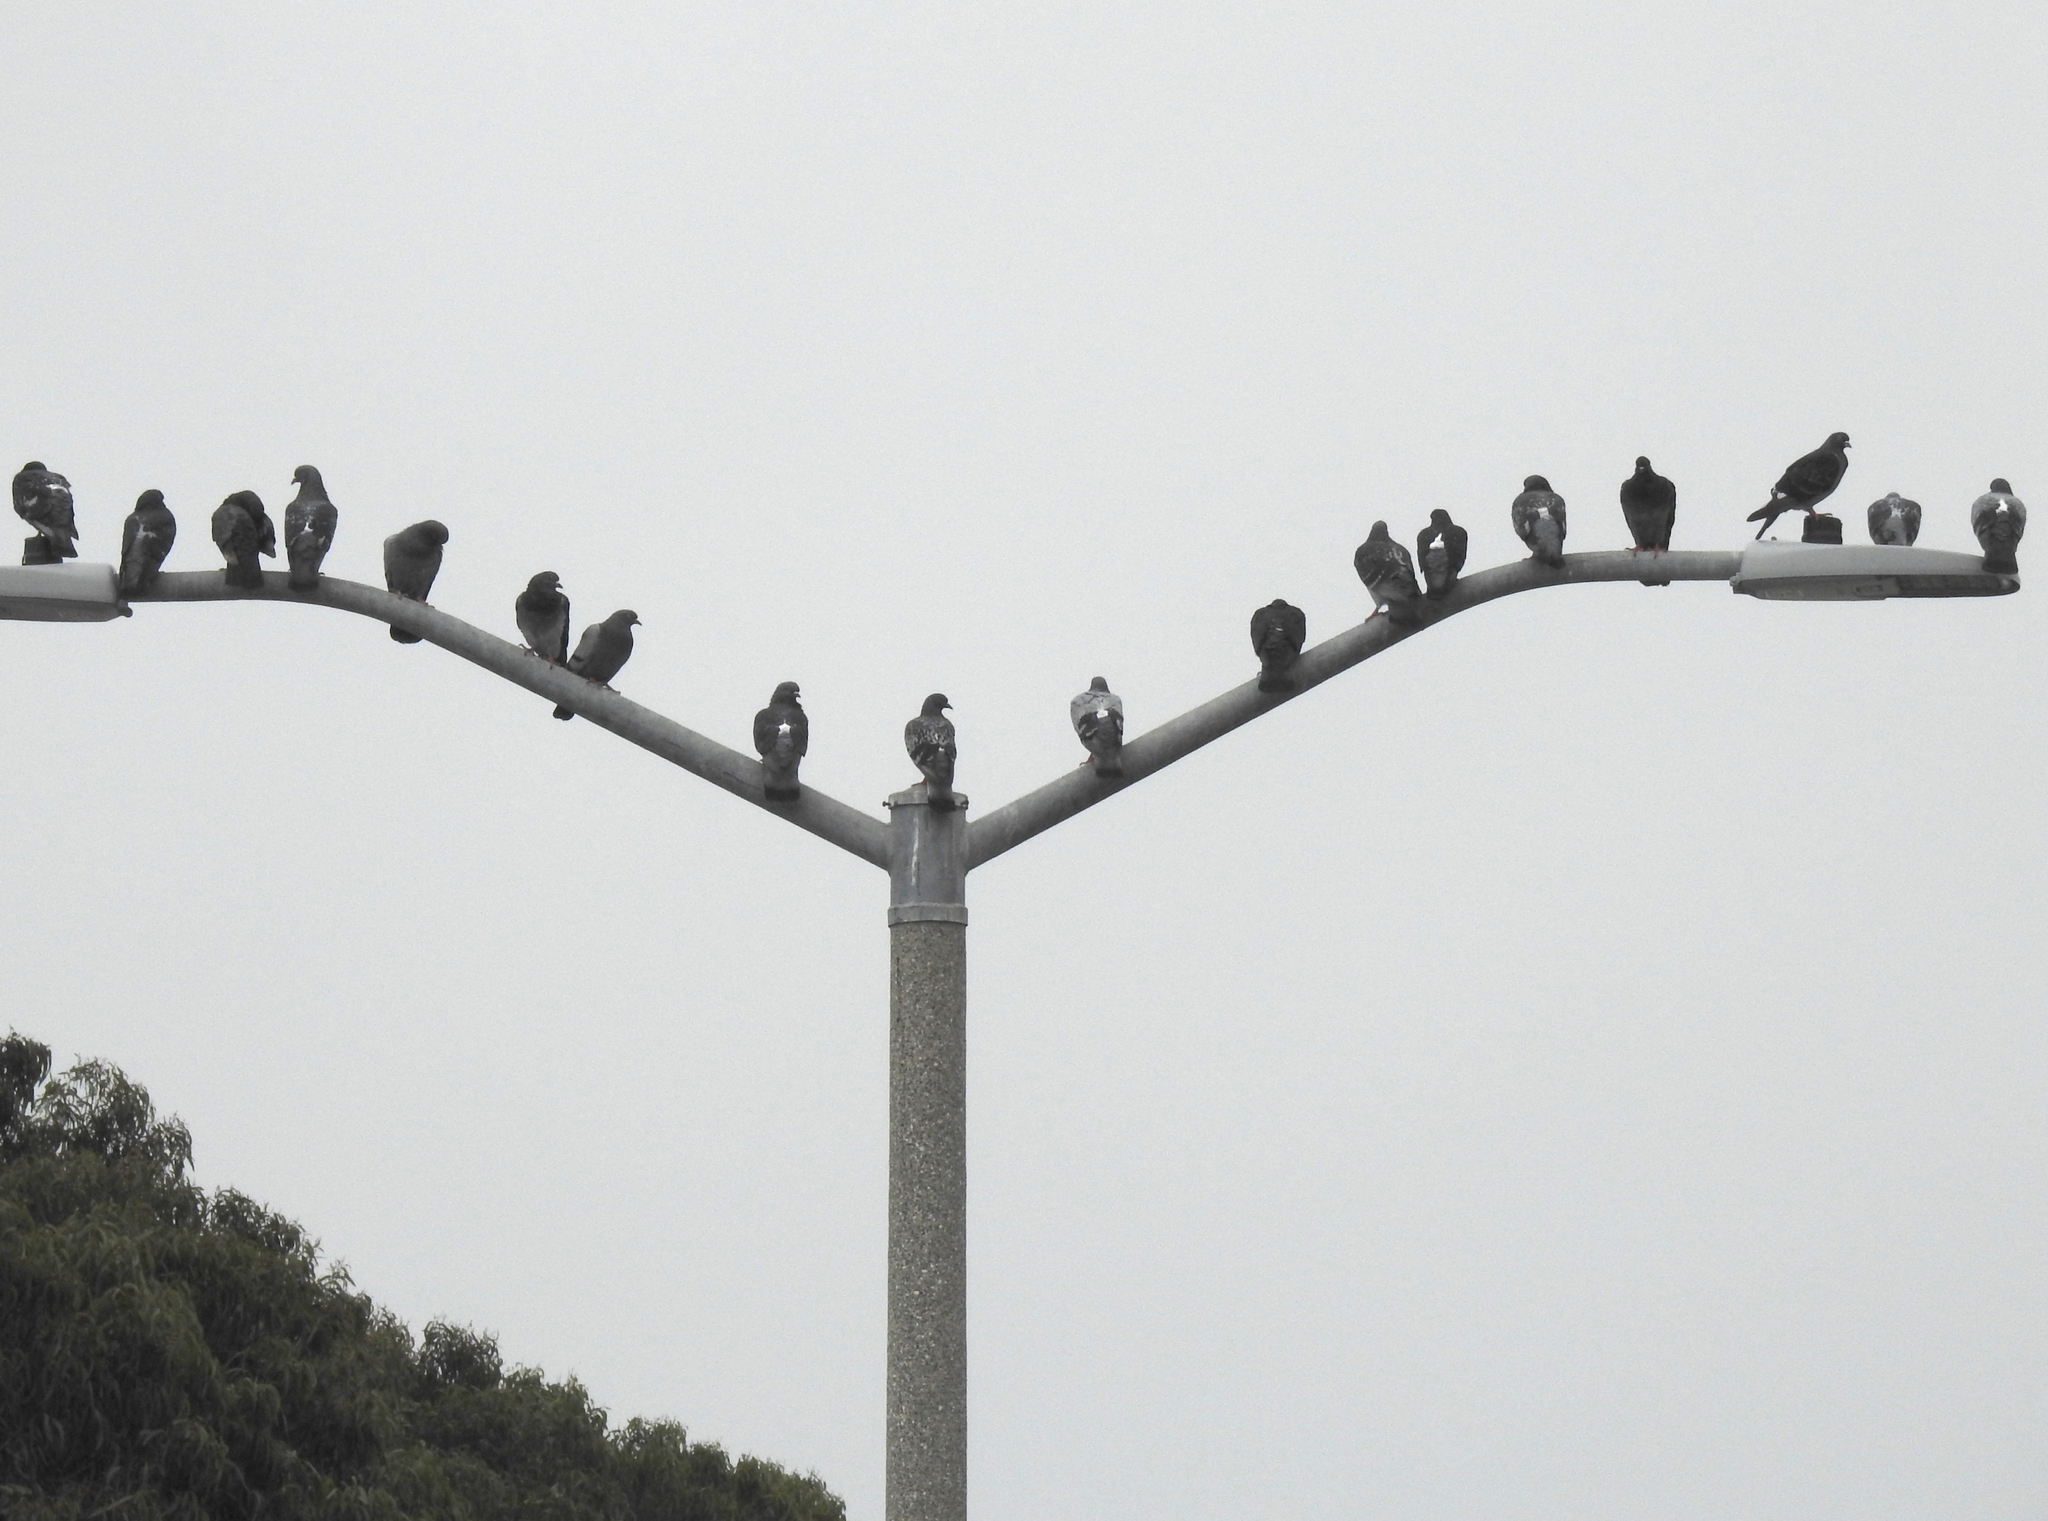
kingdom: Animalia
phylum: Chordata
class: Aves
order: Columbiformes
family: Columbidae
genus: Columba
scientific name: Columba livia
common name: Rock pigeon
